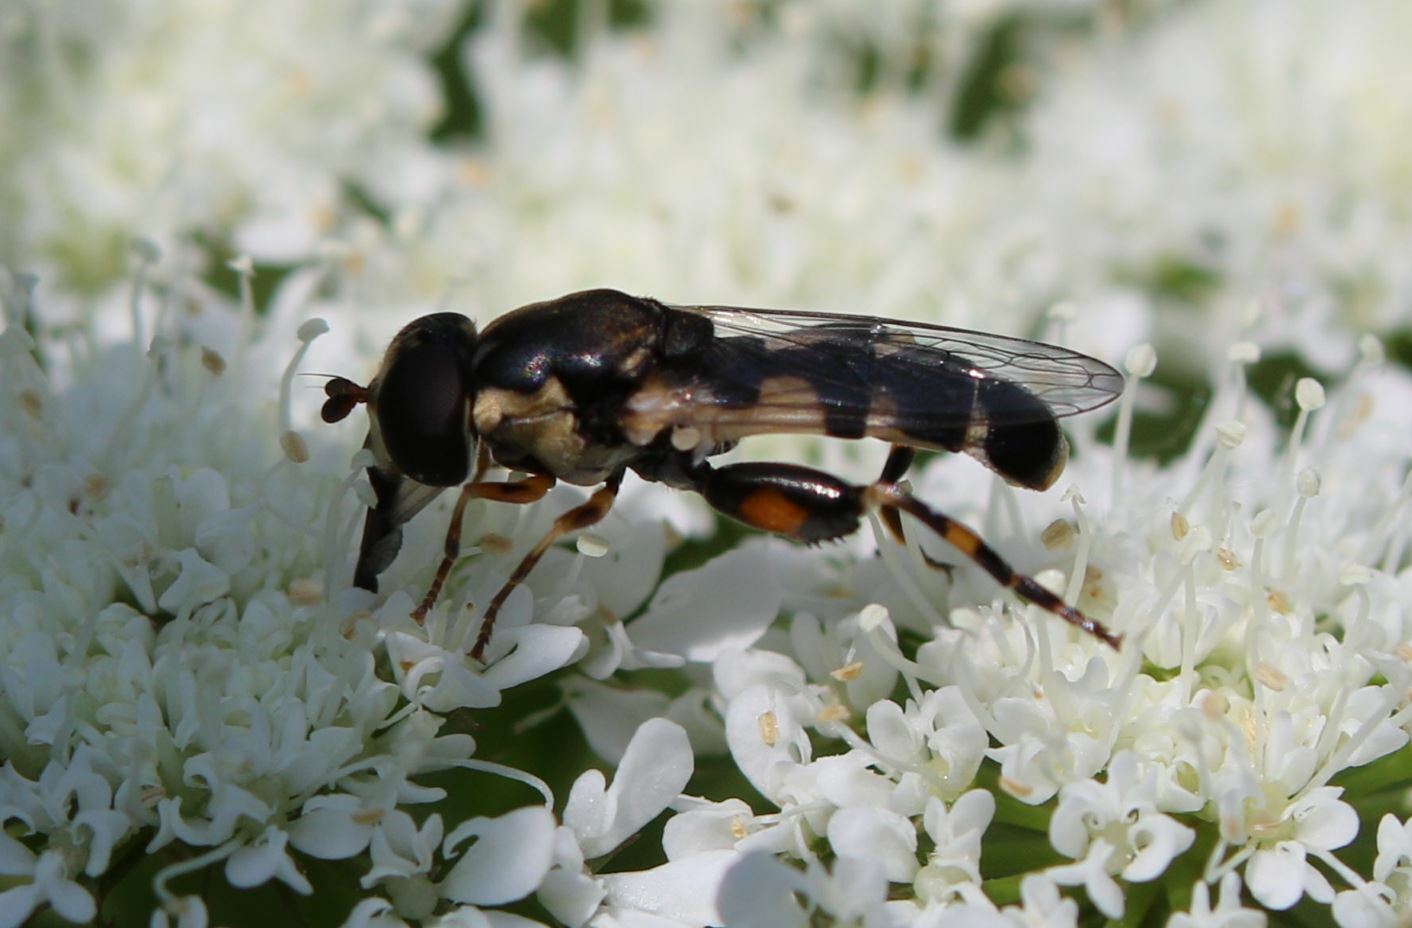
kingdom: Animalia
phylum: Arthropoda
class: Insecta
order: Diptera
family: Syrphidae
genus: Syritta
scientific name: Syritta pipiens
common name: Hover fly
